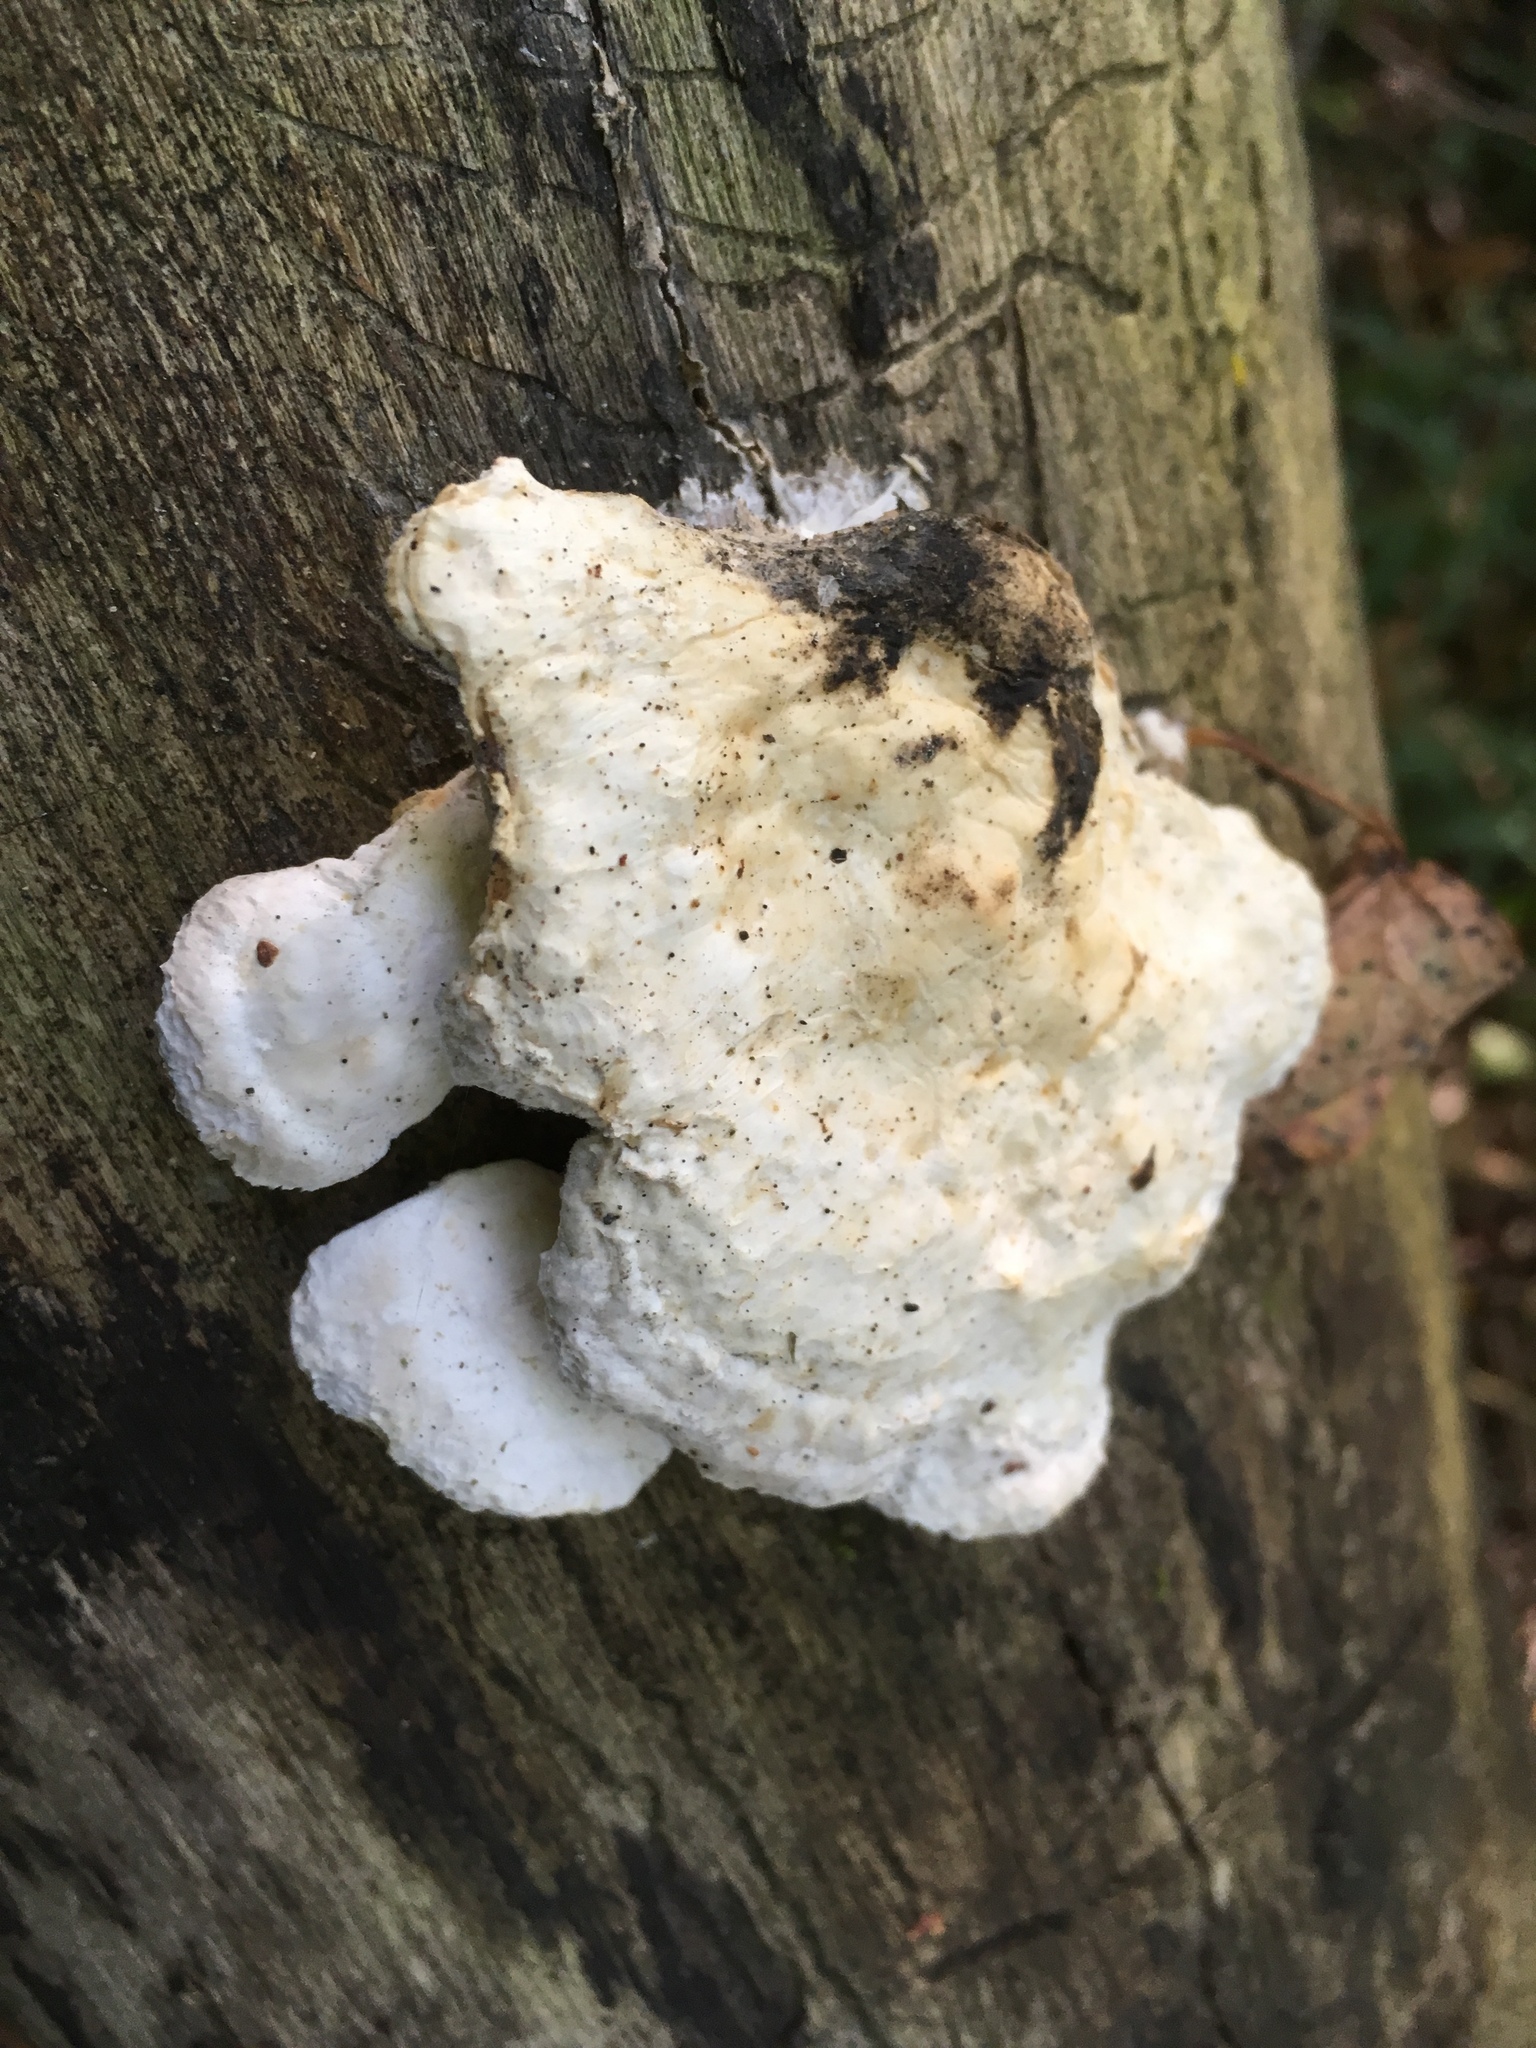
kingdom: Fungi
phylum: Basidiomycota
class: Agaricomycetes
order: Polyporales
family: Incrustoporiaceae
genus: Tyromyces
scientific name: Tyromyces lacteus
